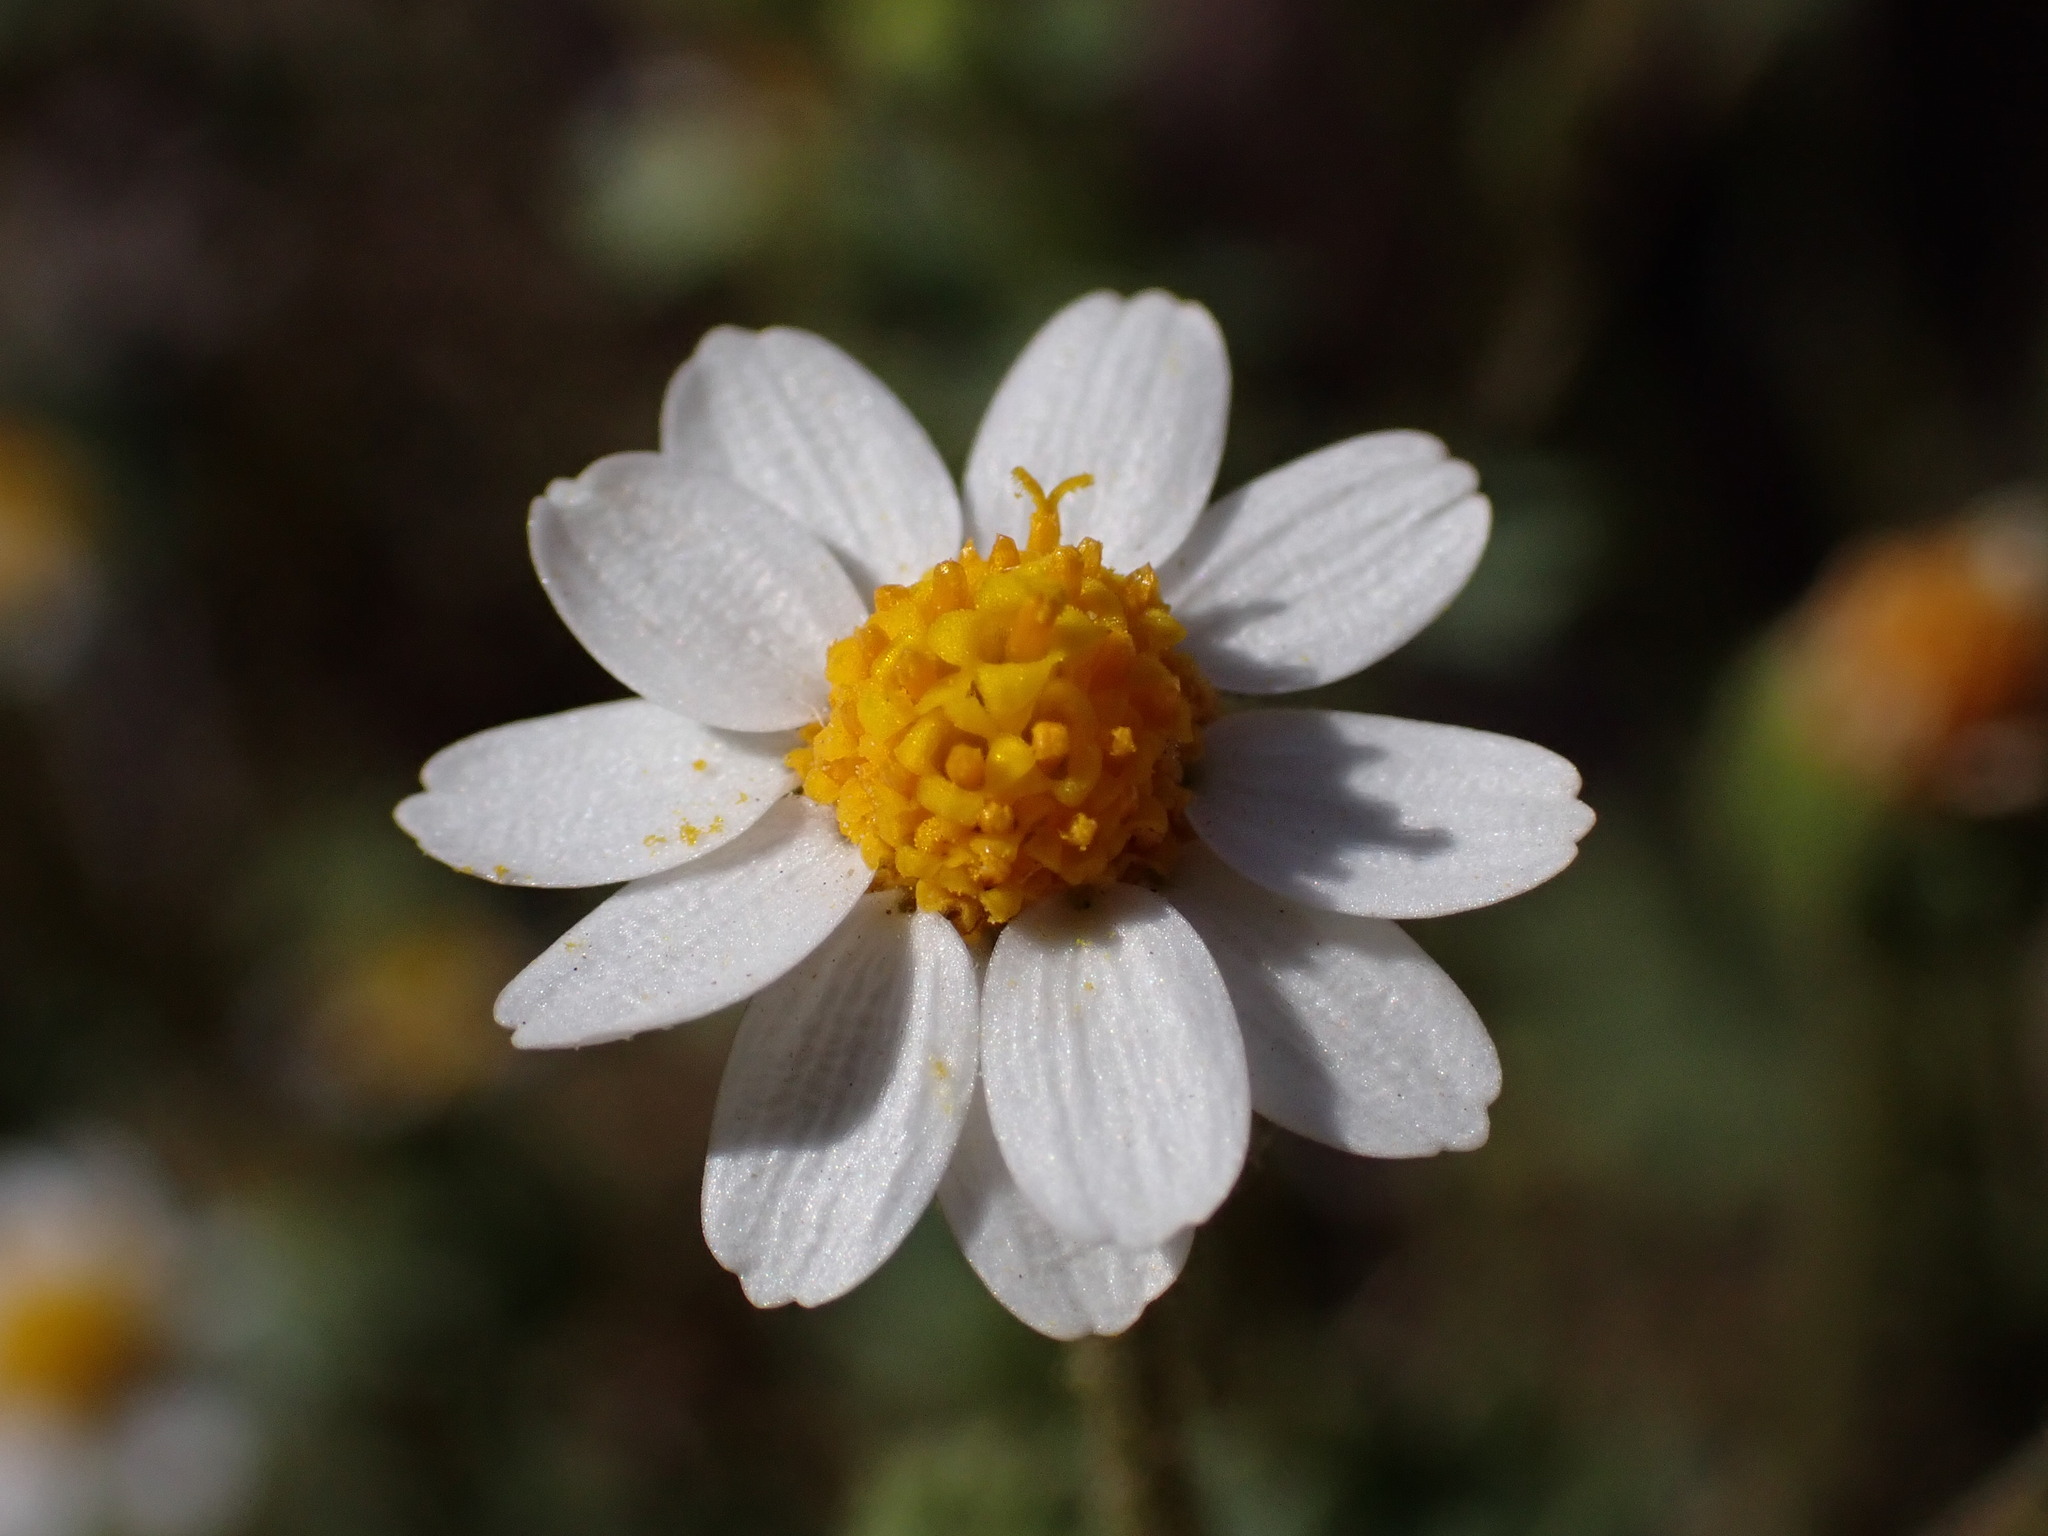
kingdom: Plantae
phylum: Tracheophyta
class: Magnoliopsida
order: Asterales
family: Asteraceae
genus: Laphamia
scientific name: Laphamia emoryi
